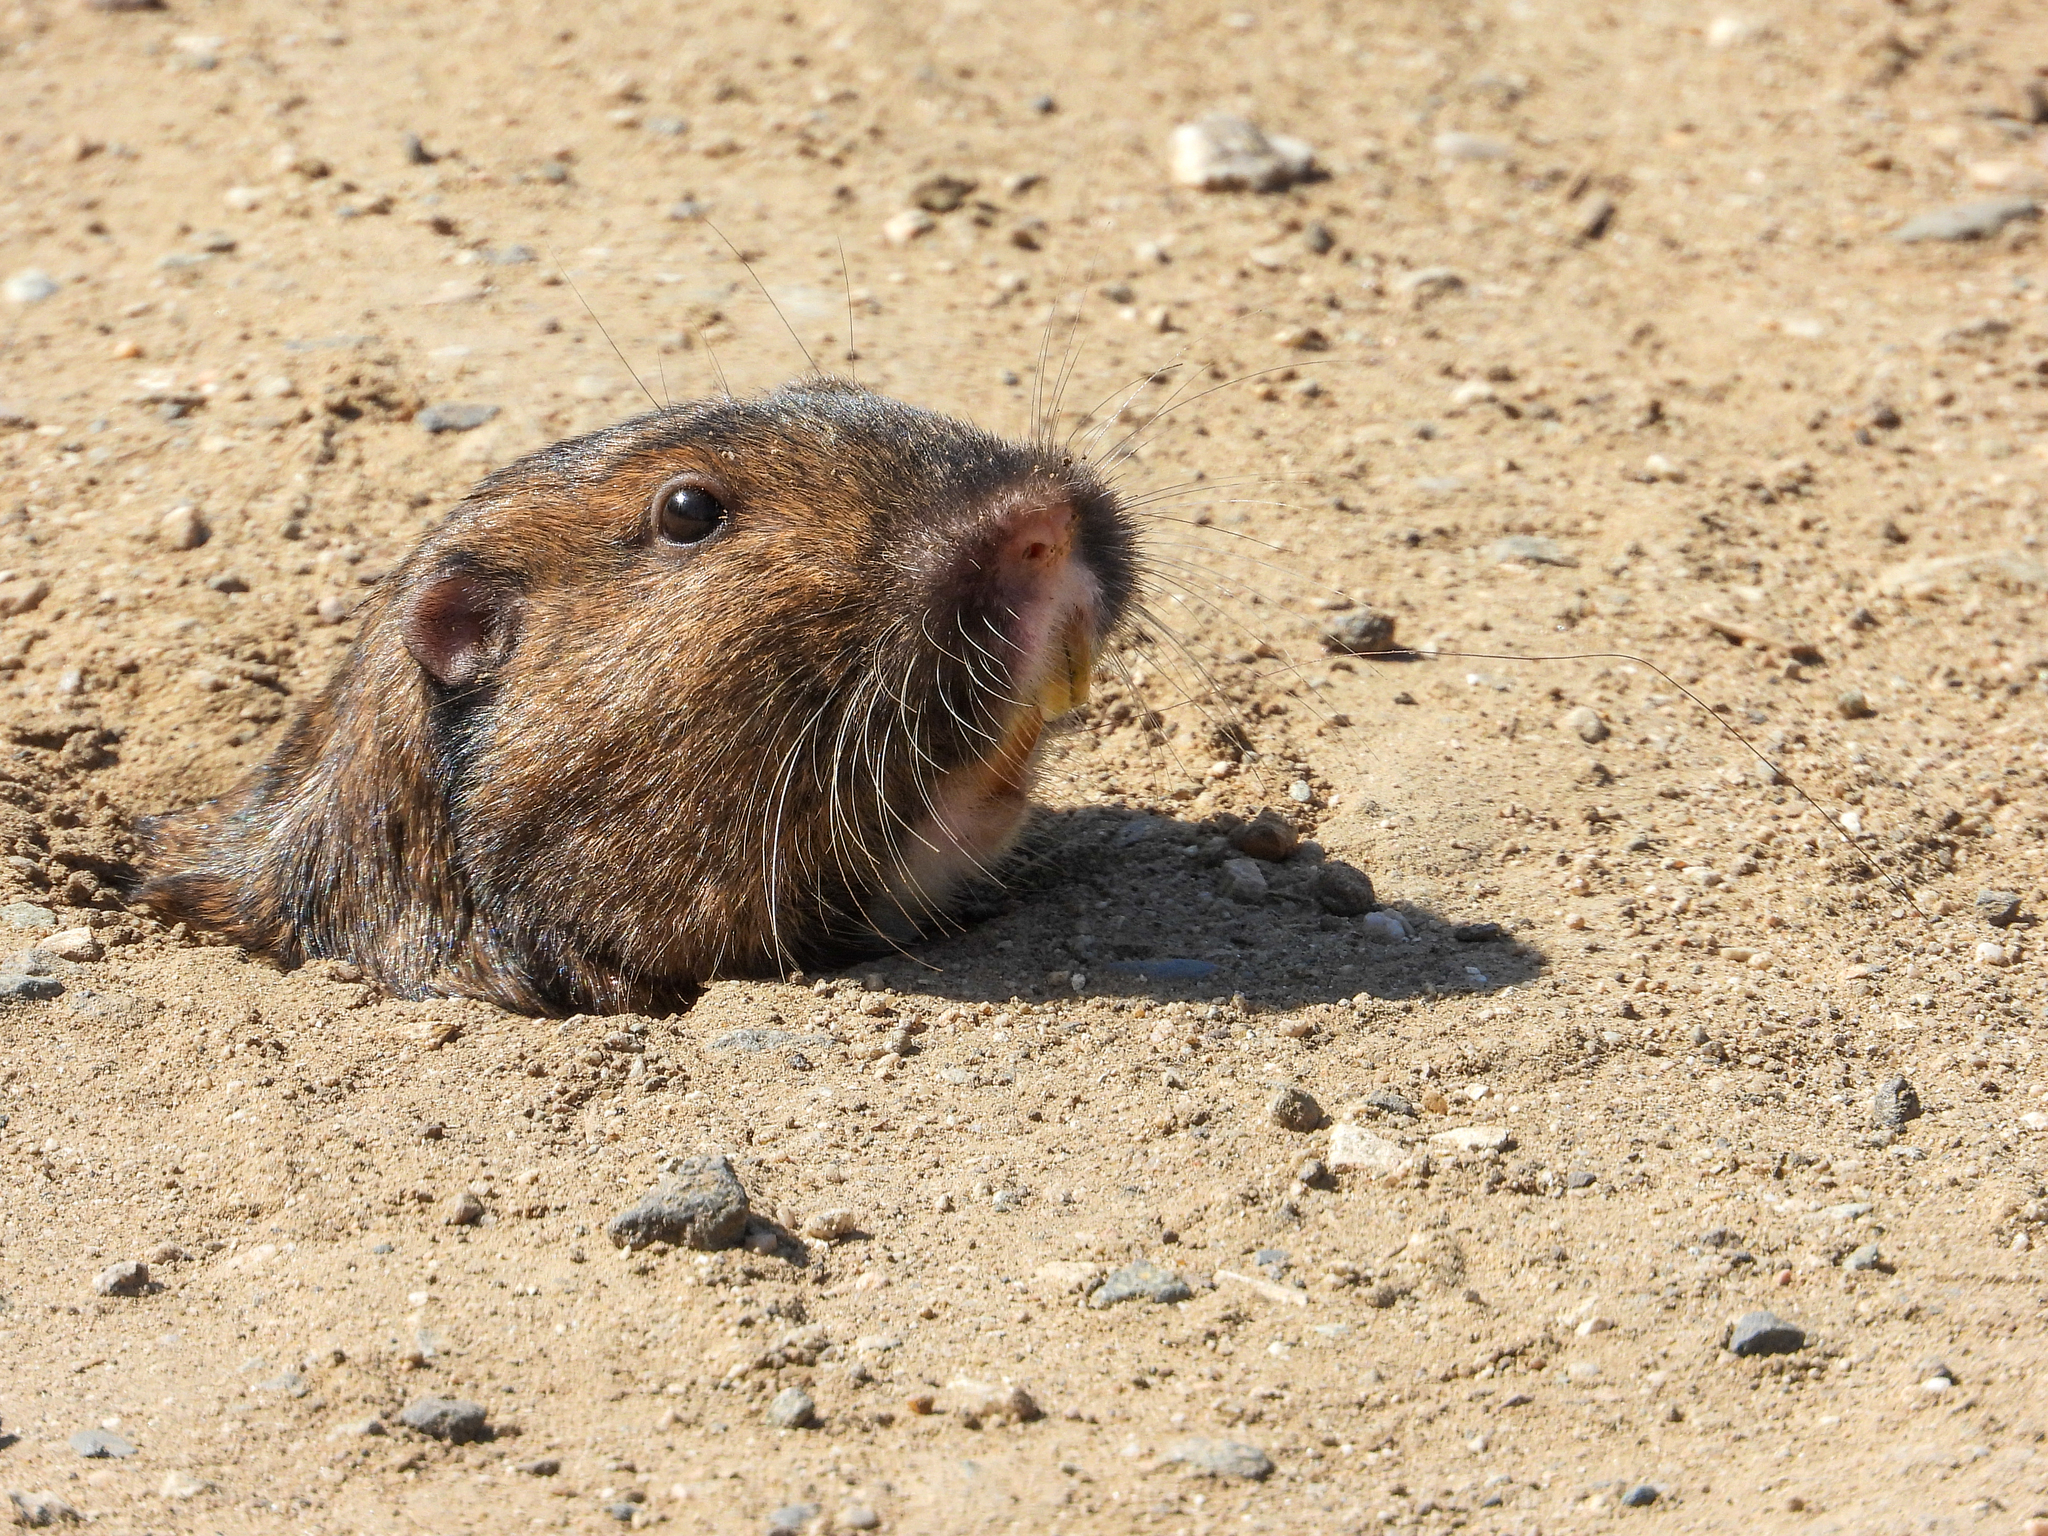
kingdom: Animalia
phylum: Chordata
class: Mammalia
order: Rodentia
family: Geomyidae
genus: Thomomys
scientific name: Thomomys bottae
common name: Botta's pocket gopher
